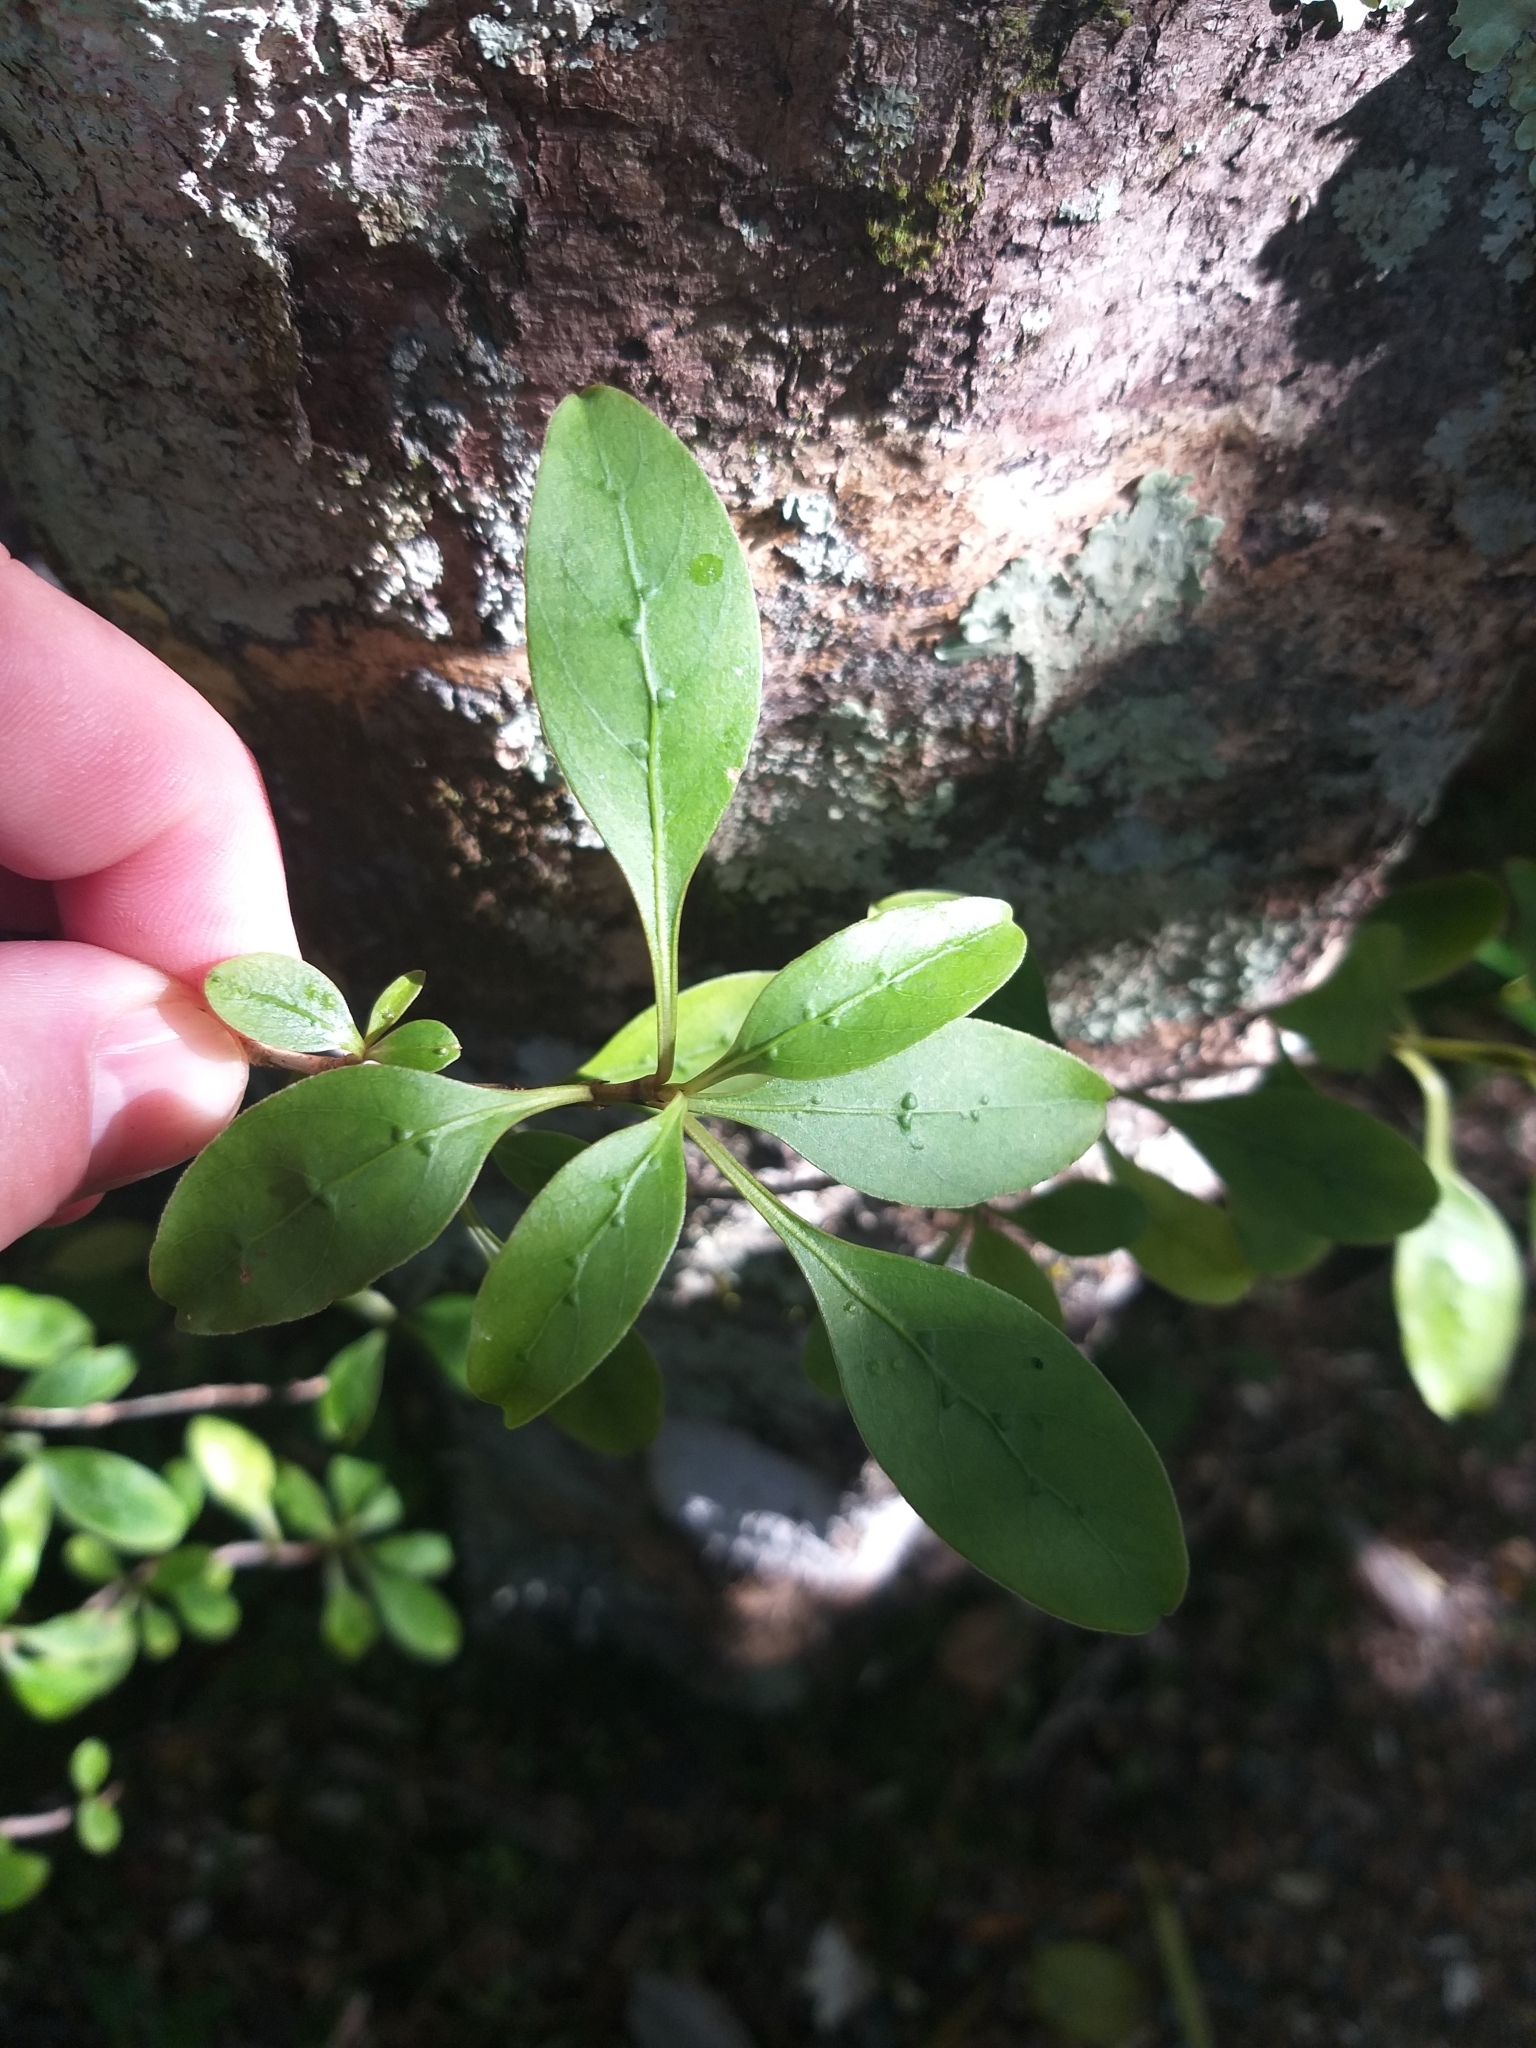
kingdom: Plantae
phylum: Tracheophyta
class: Magnoliopsida
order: Gentianales
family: Rubiaceae
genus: Coprosma
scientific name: Coprosma foetidissima
